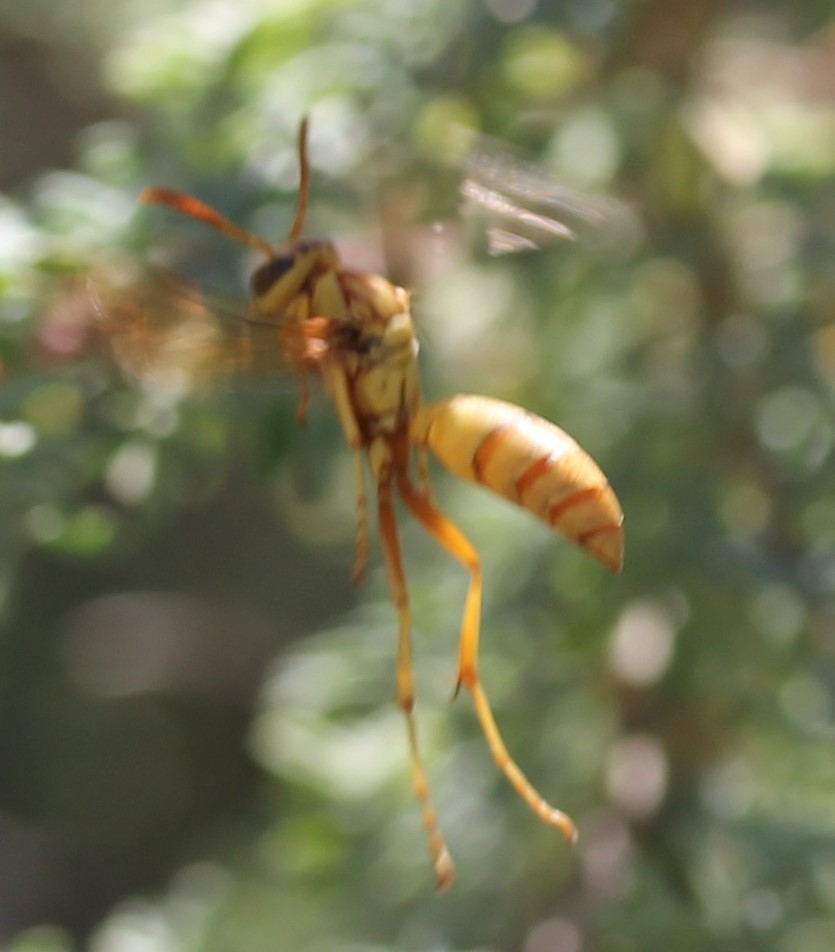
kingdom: Animalia
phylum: Arthropoda
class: Insecta
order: Hymenoptera
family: Eumenidae
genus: Polistes
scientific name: Polistes aurifer
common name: Paper wasp
